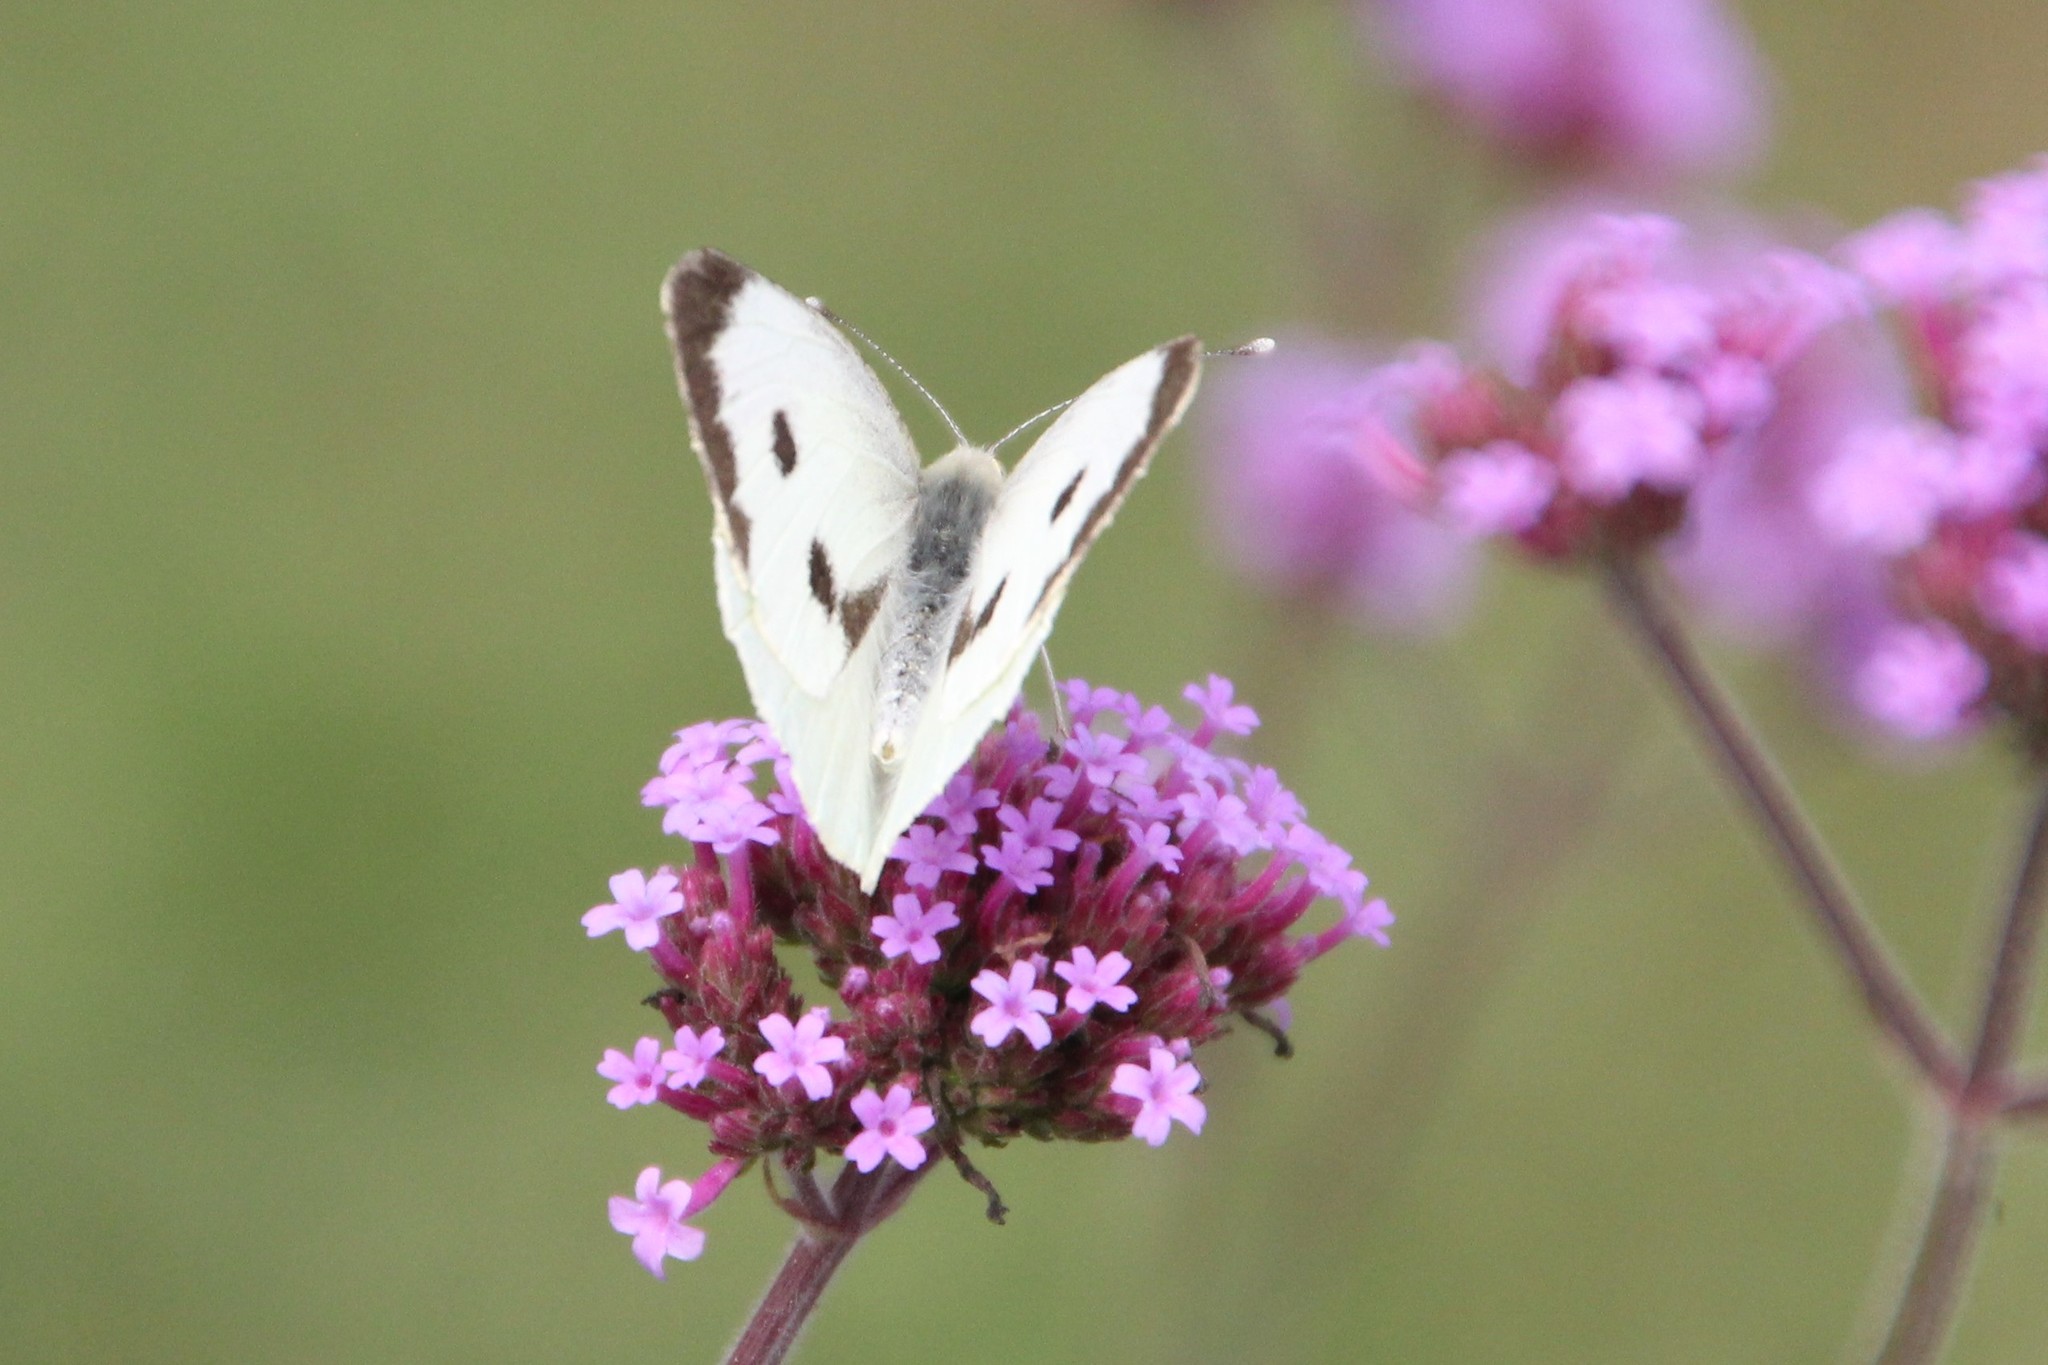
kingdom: Animalia
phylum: Arthropoda
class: Insecta
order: Lepidoptera
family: Pieridae
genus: Pieris
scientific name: Pieris brassicae
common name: Large white
